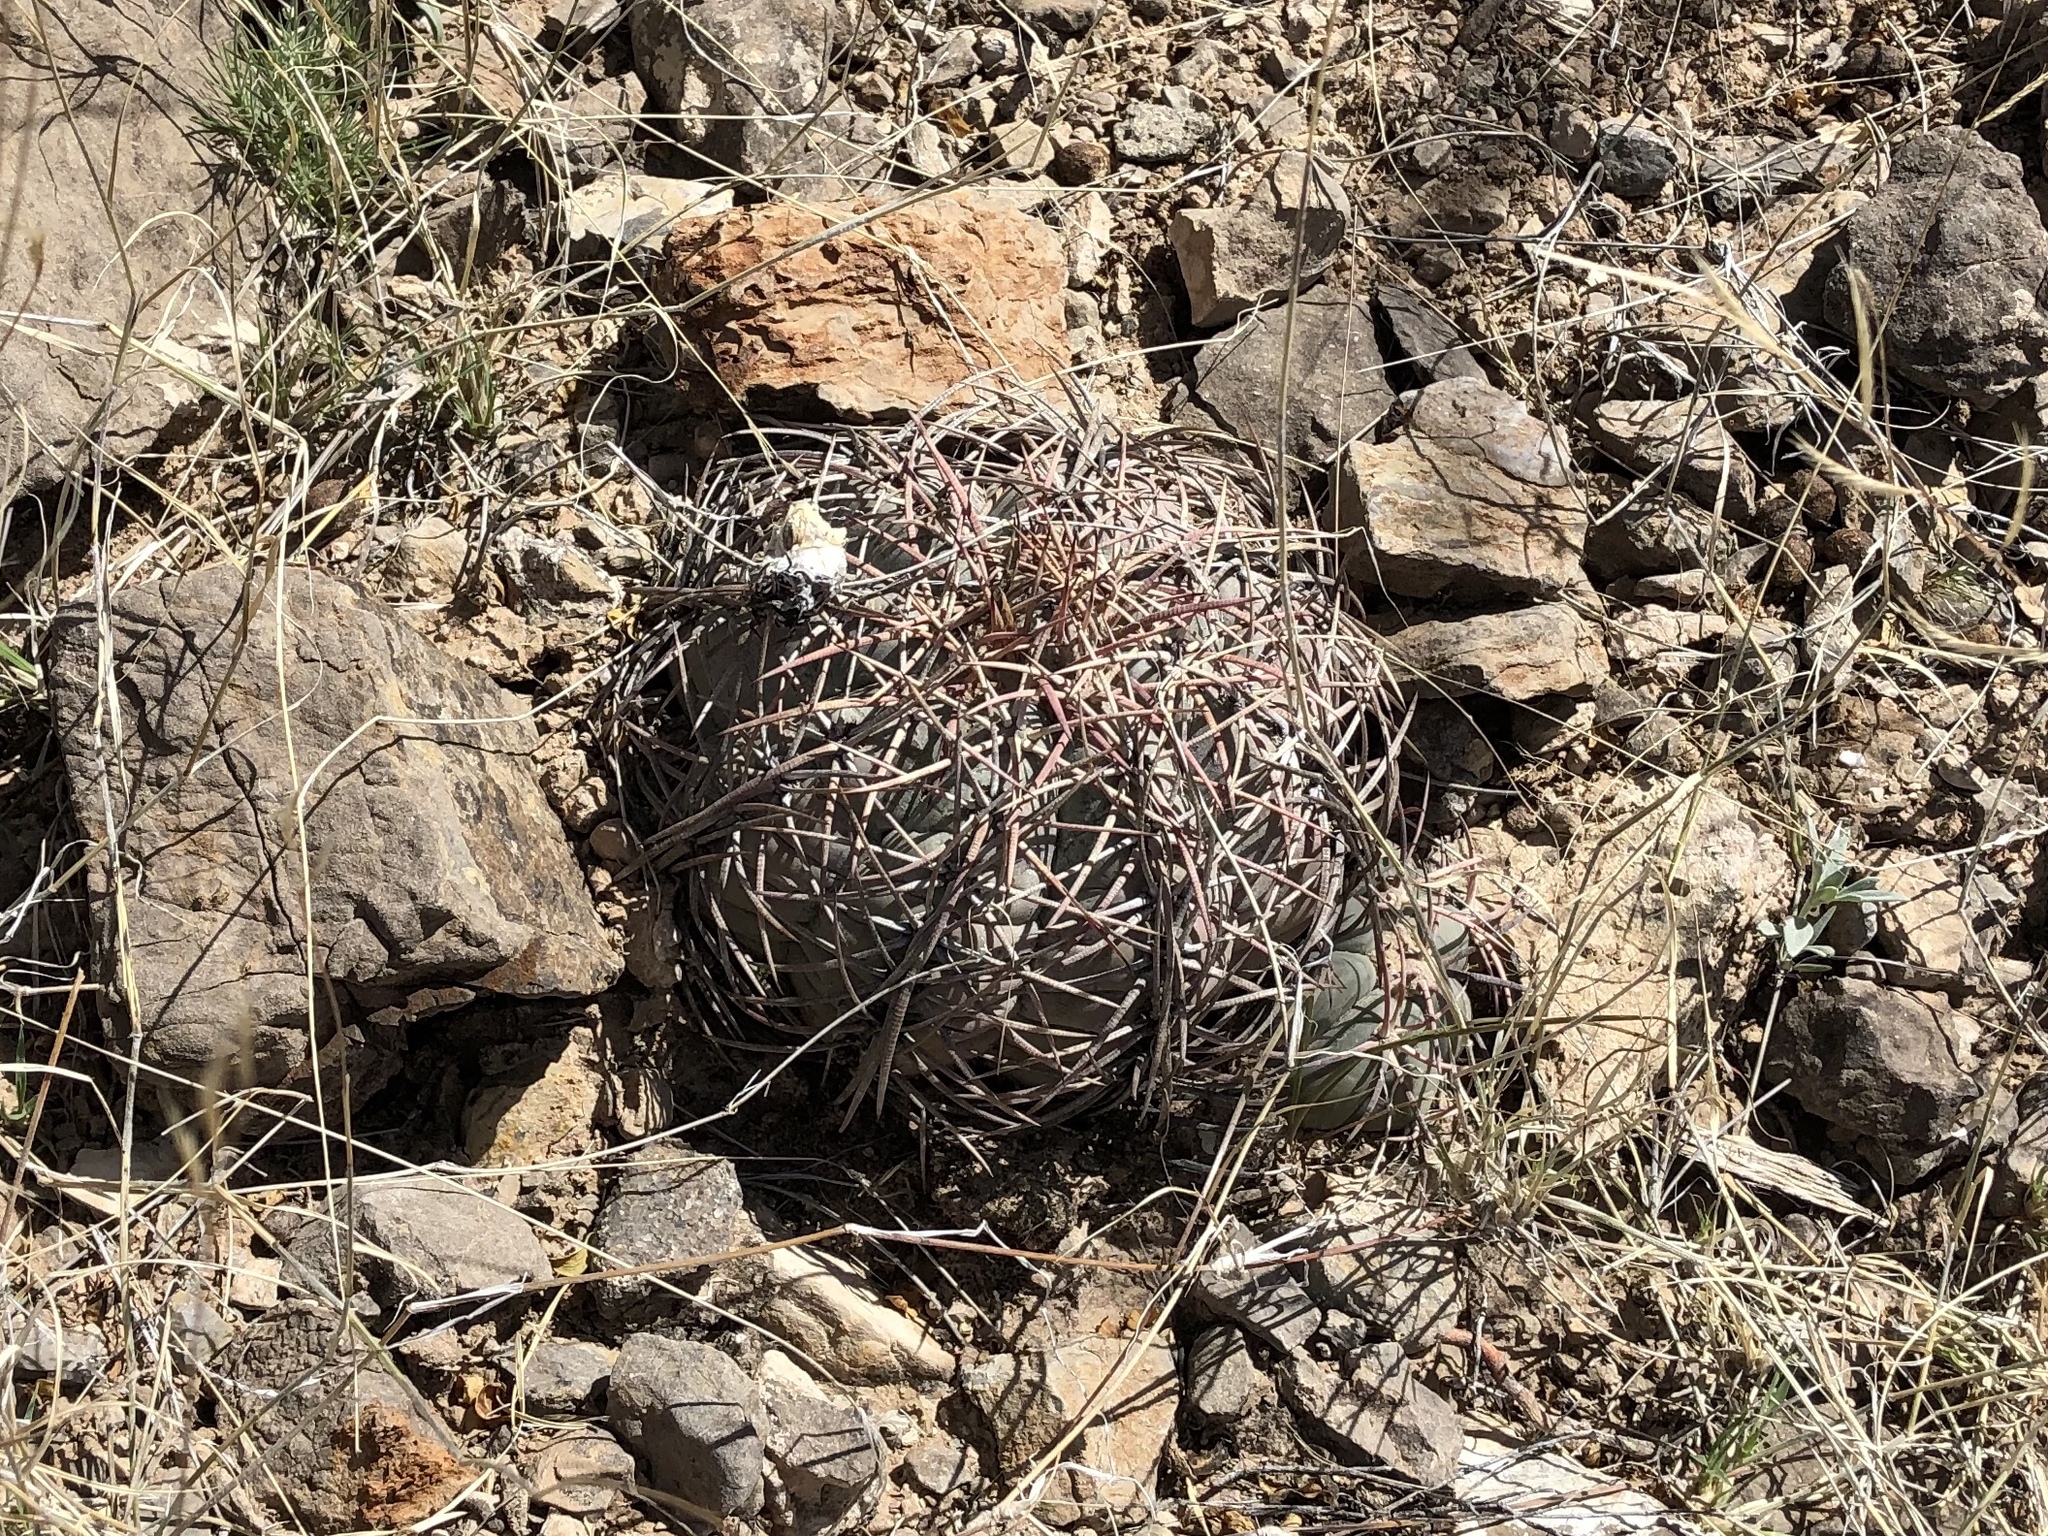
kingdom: Plantae
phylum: Tracheophyta
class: Magnoliopsida
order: Caryophyllales
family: Cactaceae
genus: Echinocactus
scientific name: Echinocactus horizonthalonius
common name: Devilshead
